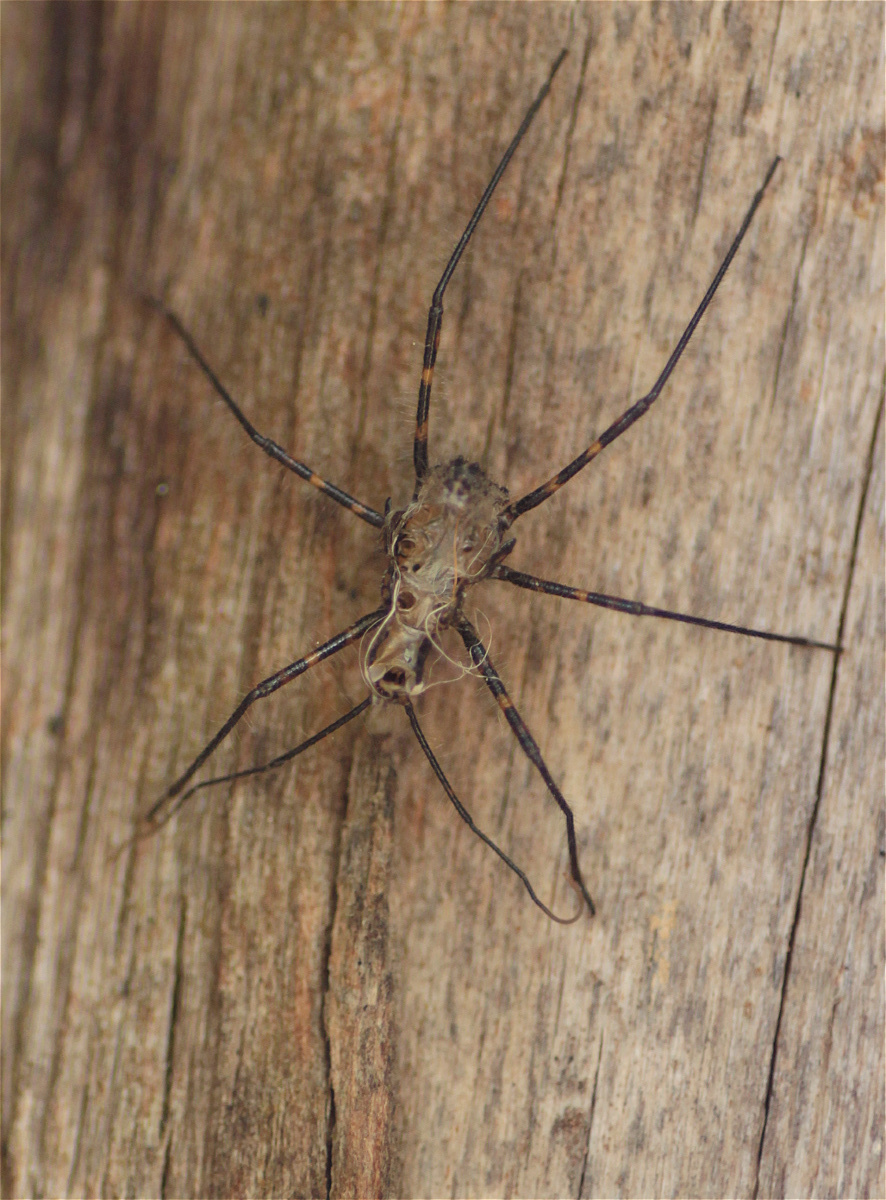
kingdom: Animalia
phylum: Arthropoda
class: Insecta
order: Hemiptera
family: Reduviidae
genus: Ambastus
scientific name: Ambastus villosus
